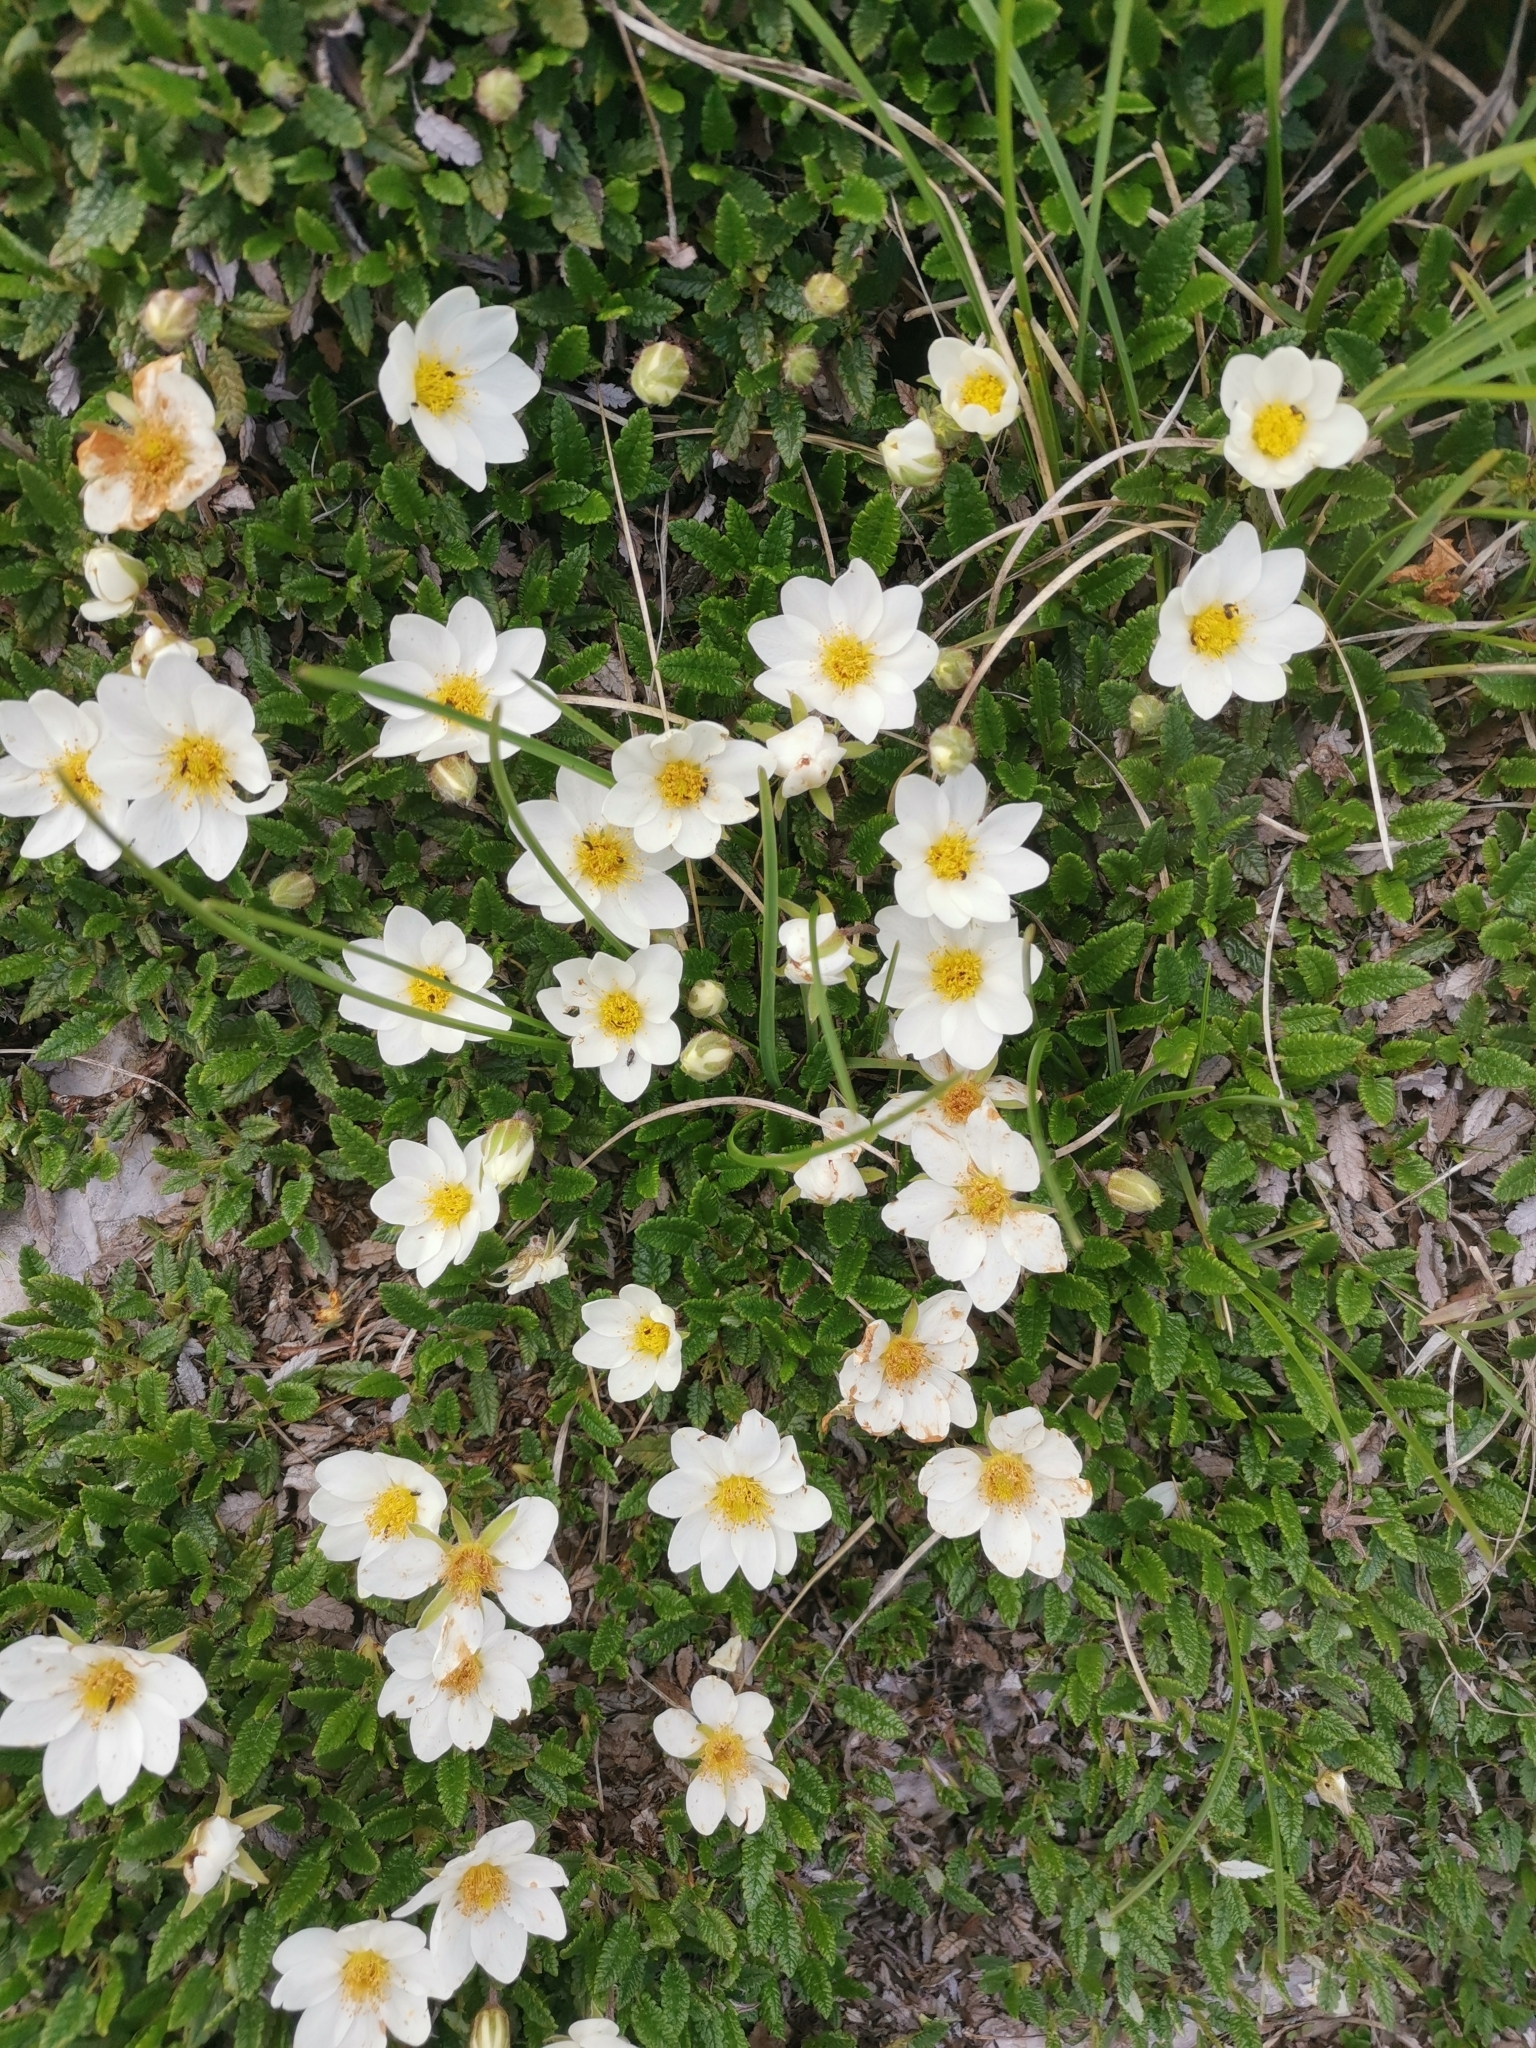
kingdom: Plantae
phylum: Tracheophyta
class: Magnoliopsida
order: Rosales
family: Rosaceae
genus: Dryas
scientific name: Dryas octopetala
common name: Eight-petal mountain-avens
